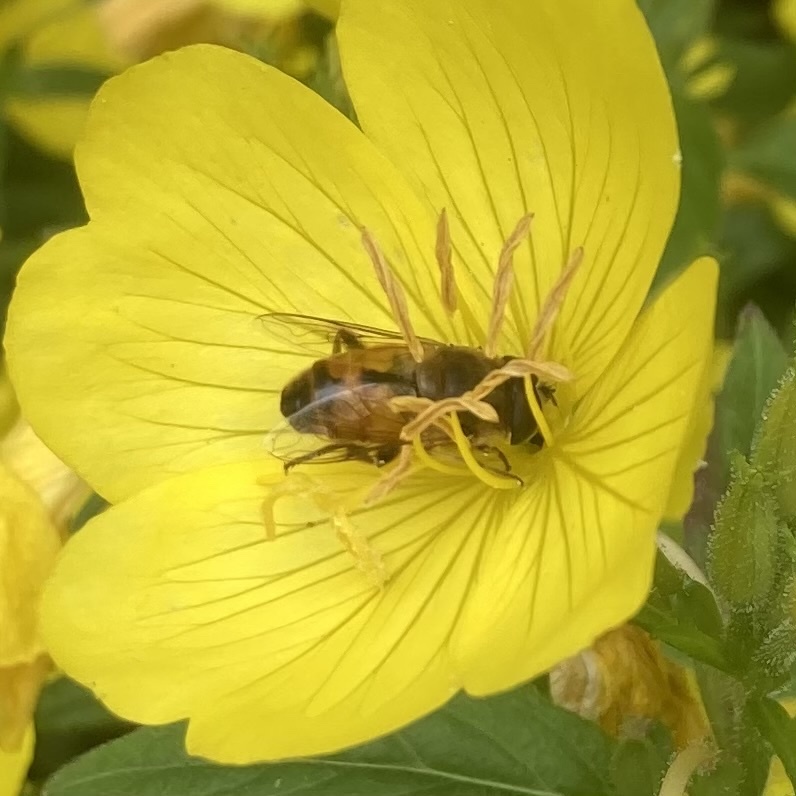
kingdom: Animalia
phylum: Arthropoda
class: Insecta
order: Diptera
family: Syrphidae
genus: Eristalis
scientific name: Eristalis tenax
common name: Drone fly
